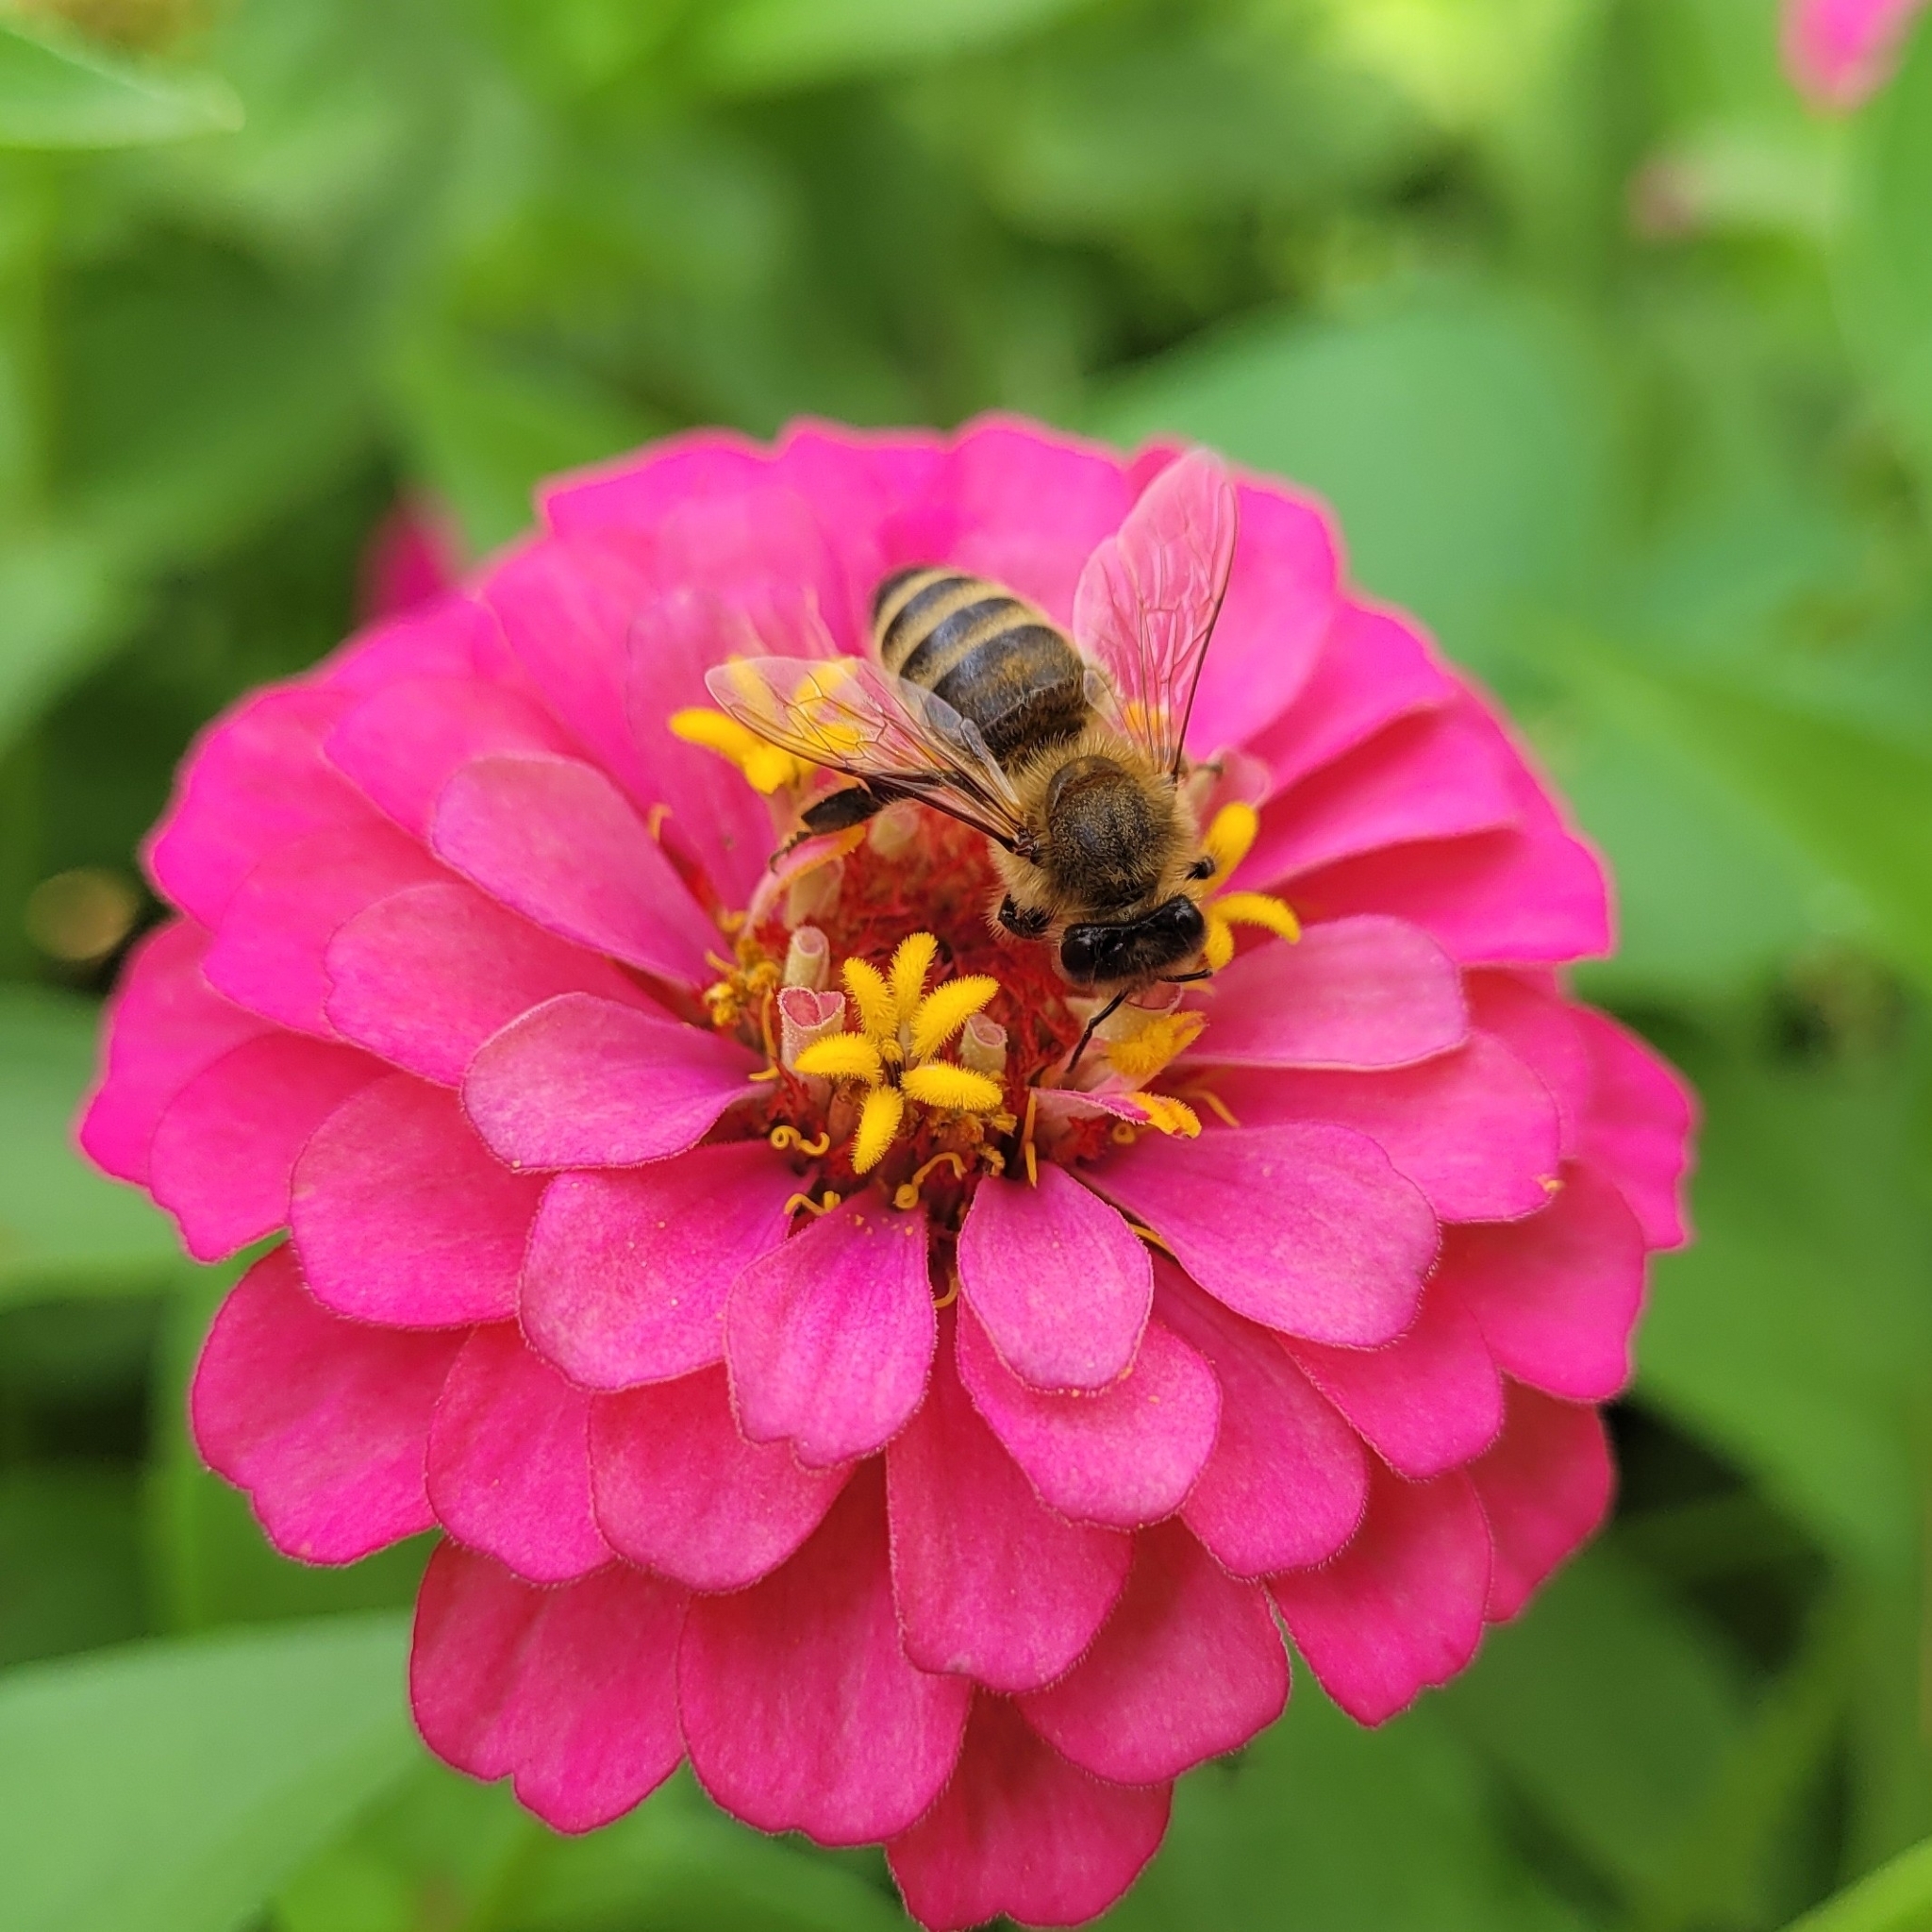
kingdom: Animalia
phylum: Arthropoda
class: Insecta
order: Hymenoptera
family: Apidae
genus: Apis
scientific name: Apis mellifera
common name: Honey bee
